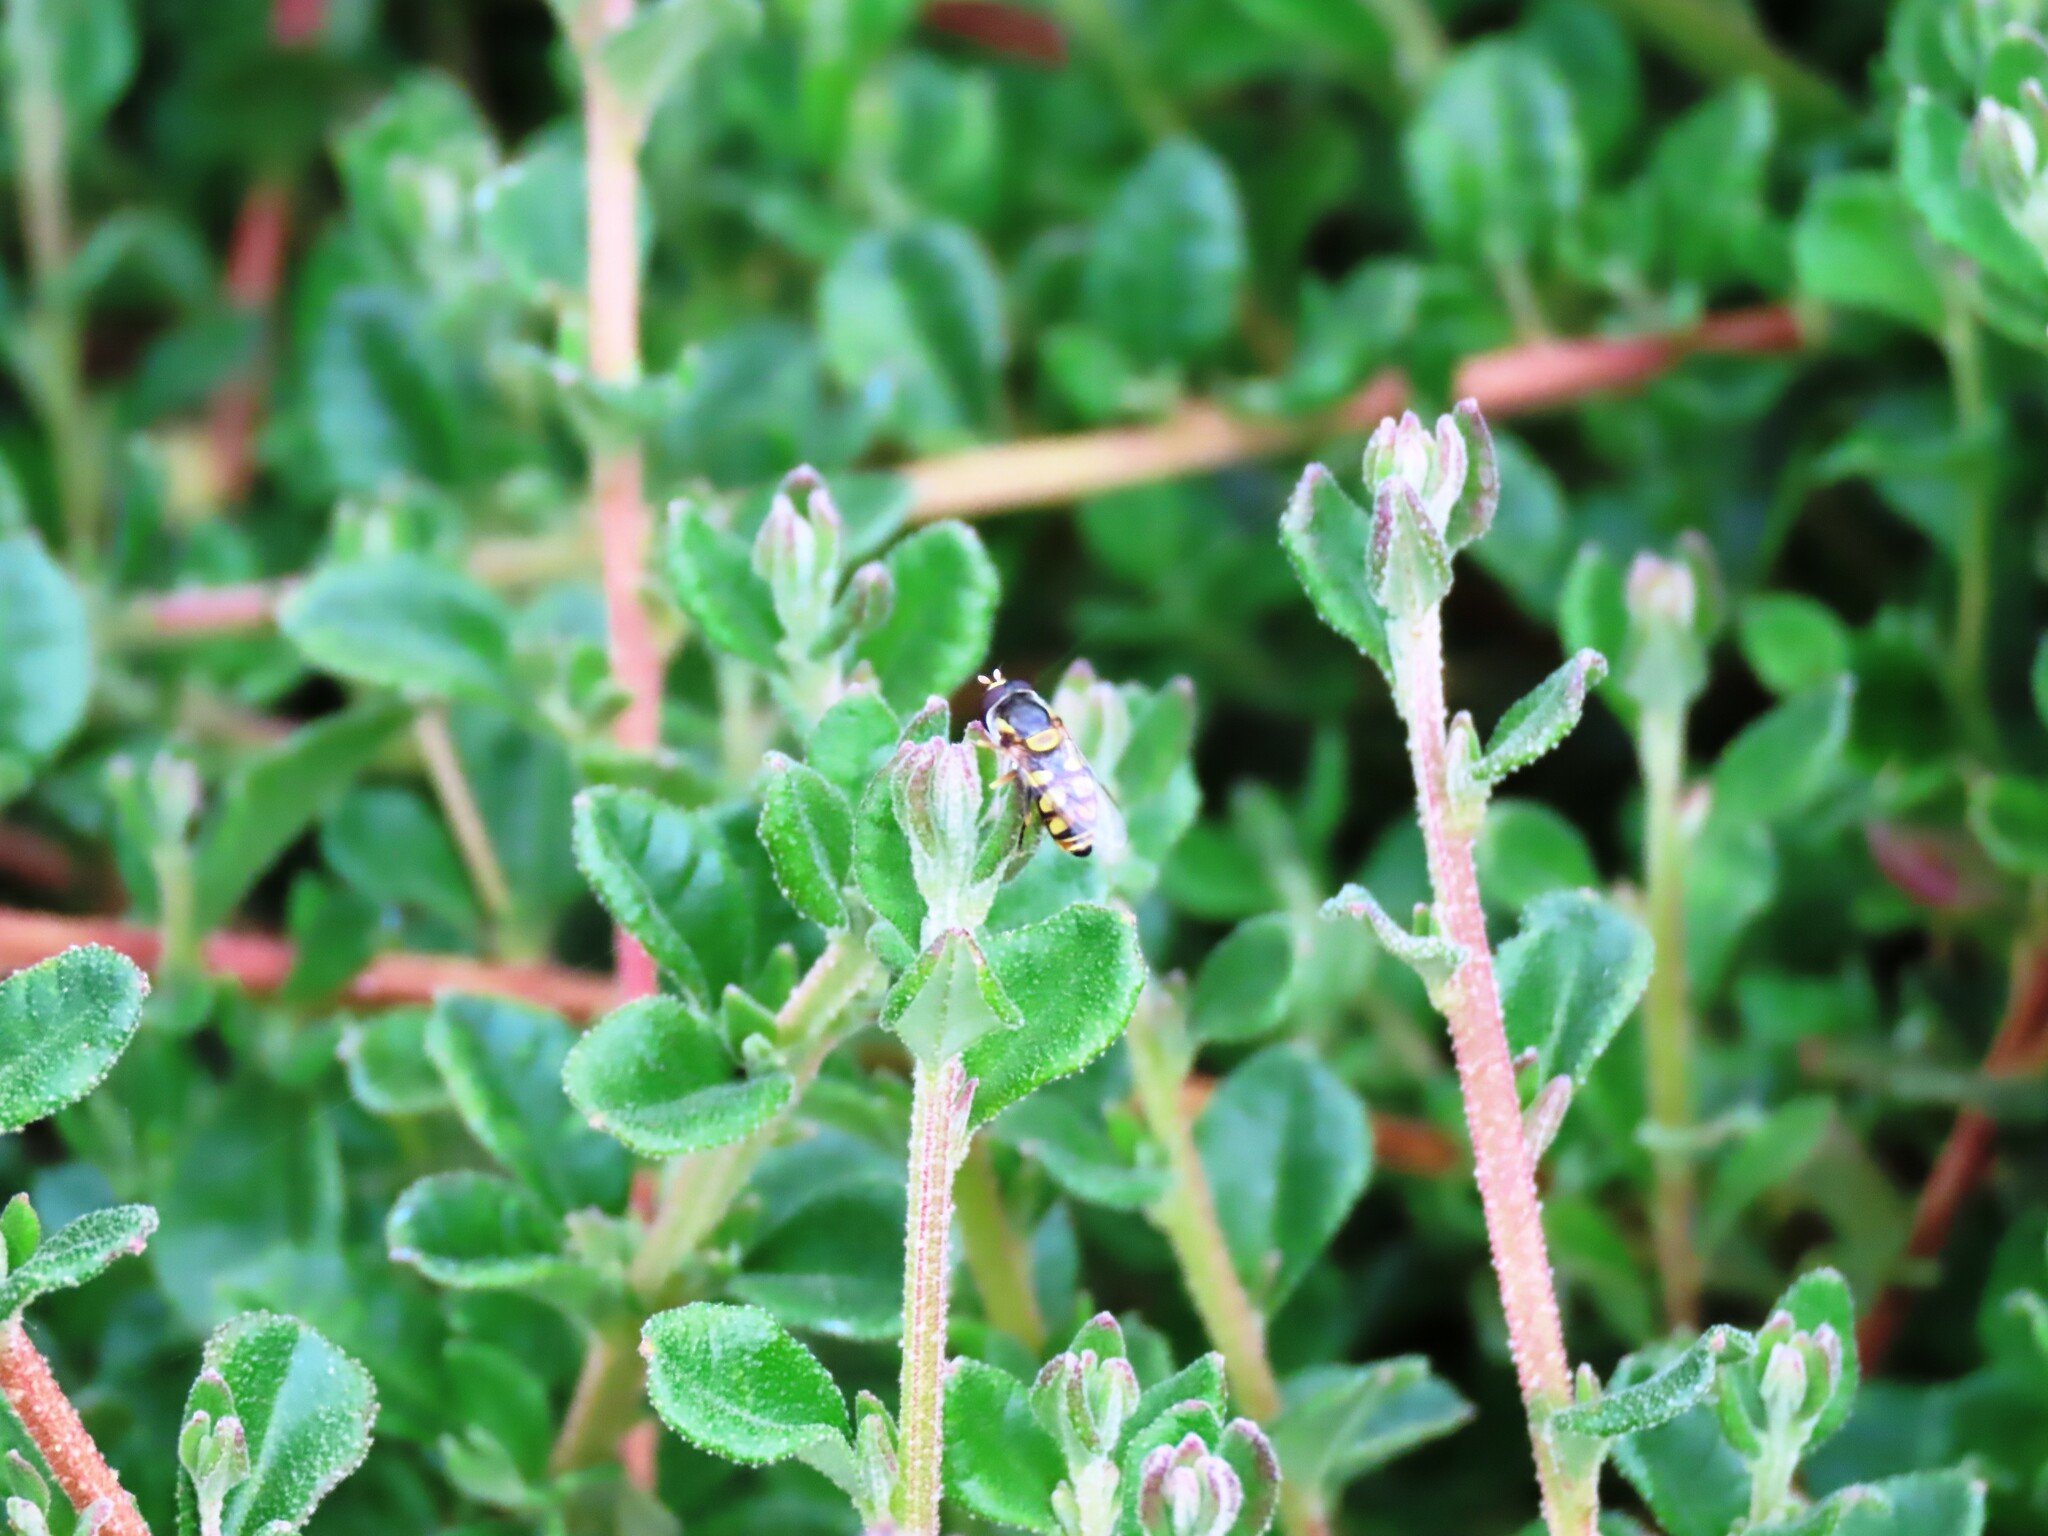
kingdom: Animalia
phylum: Arthropoda
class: Insecta
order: Diptera
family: Syrphidae
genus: Simosyrphus
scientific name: Simosyrphus grandicornis
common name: Hoverfly
